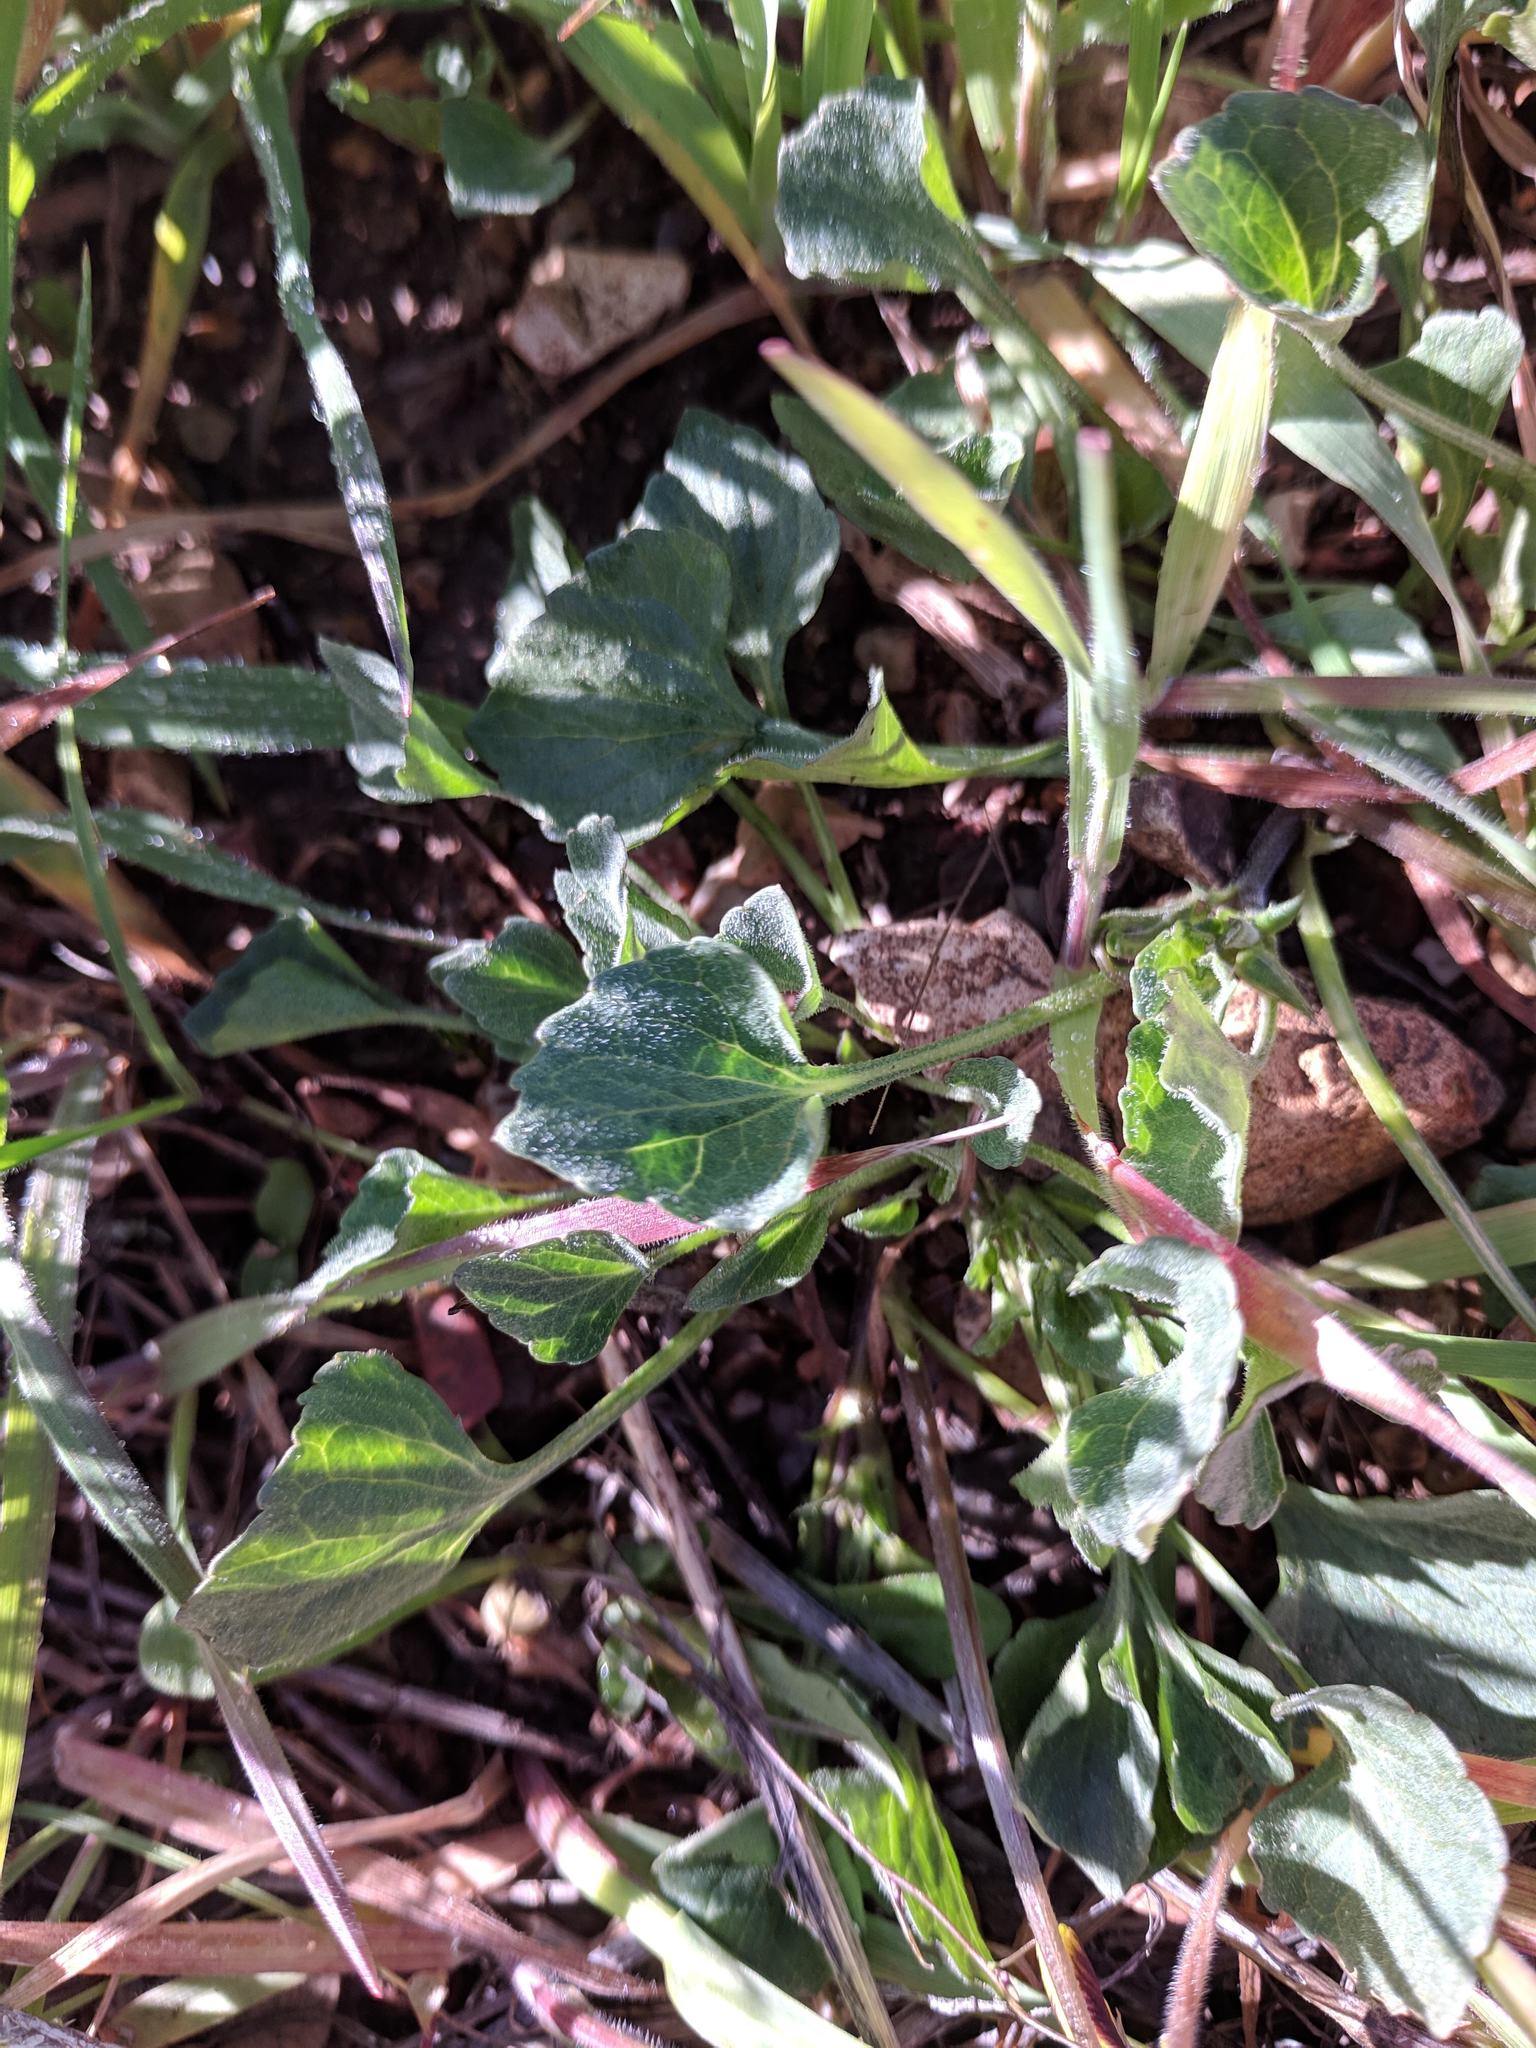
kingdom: Plantae
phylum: Tracheophyta
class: Magnoliopsida
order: Malpighiales
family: Violaceae
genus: Viola
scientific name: Viola pedunculata
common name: California golden violet
